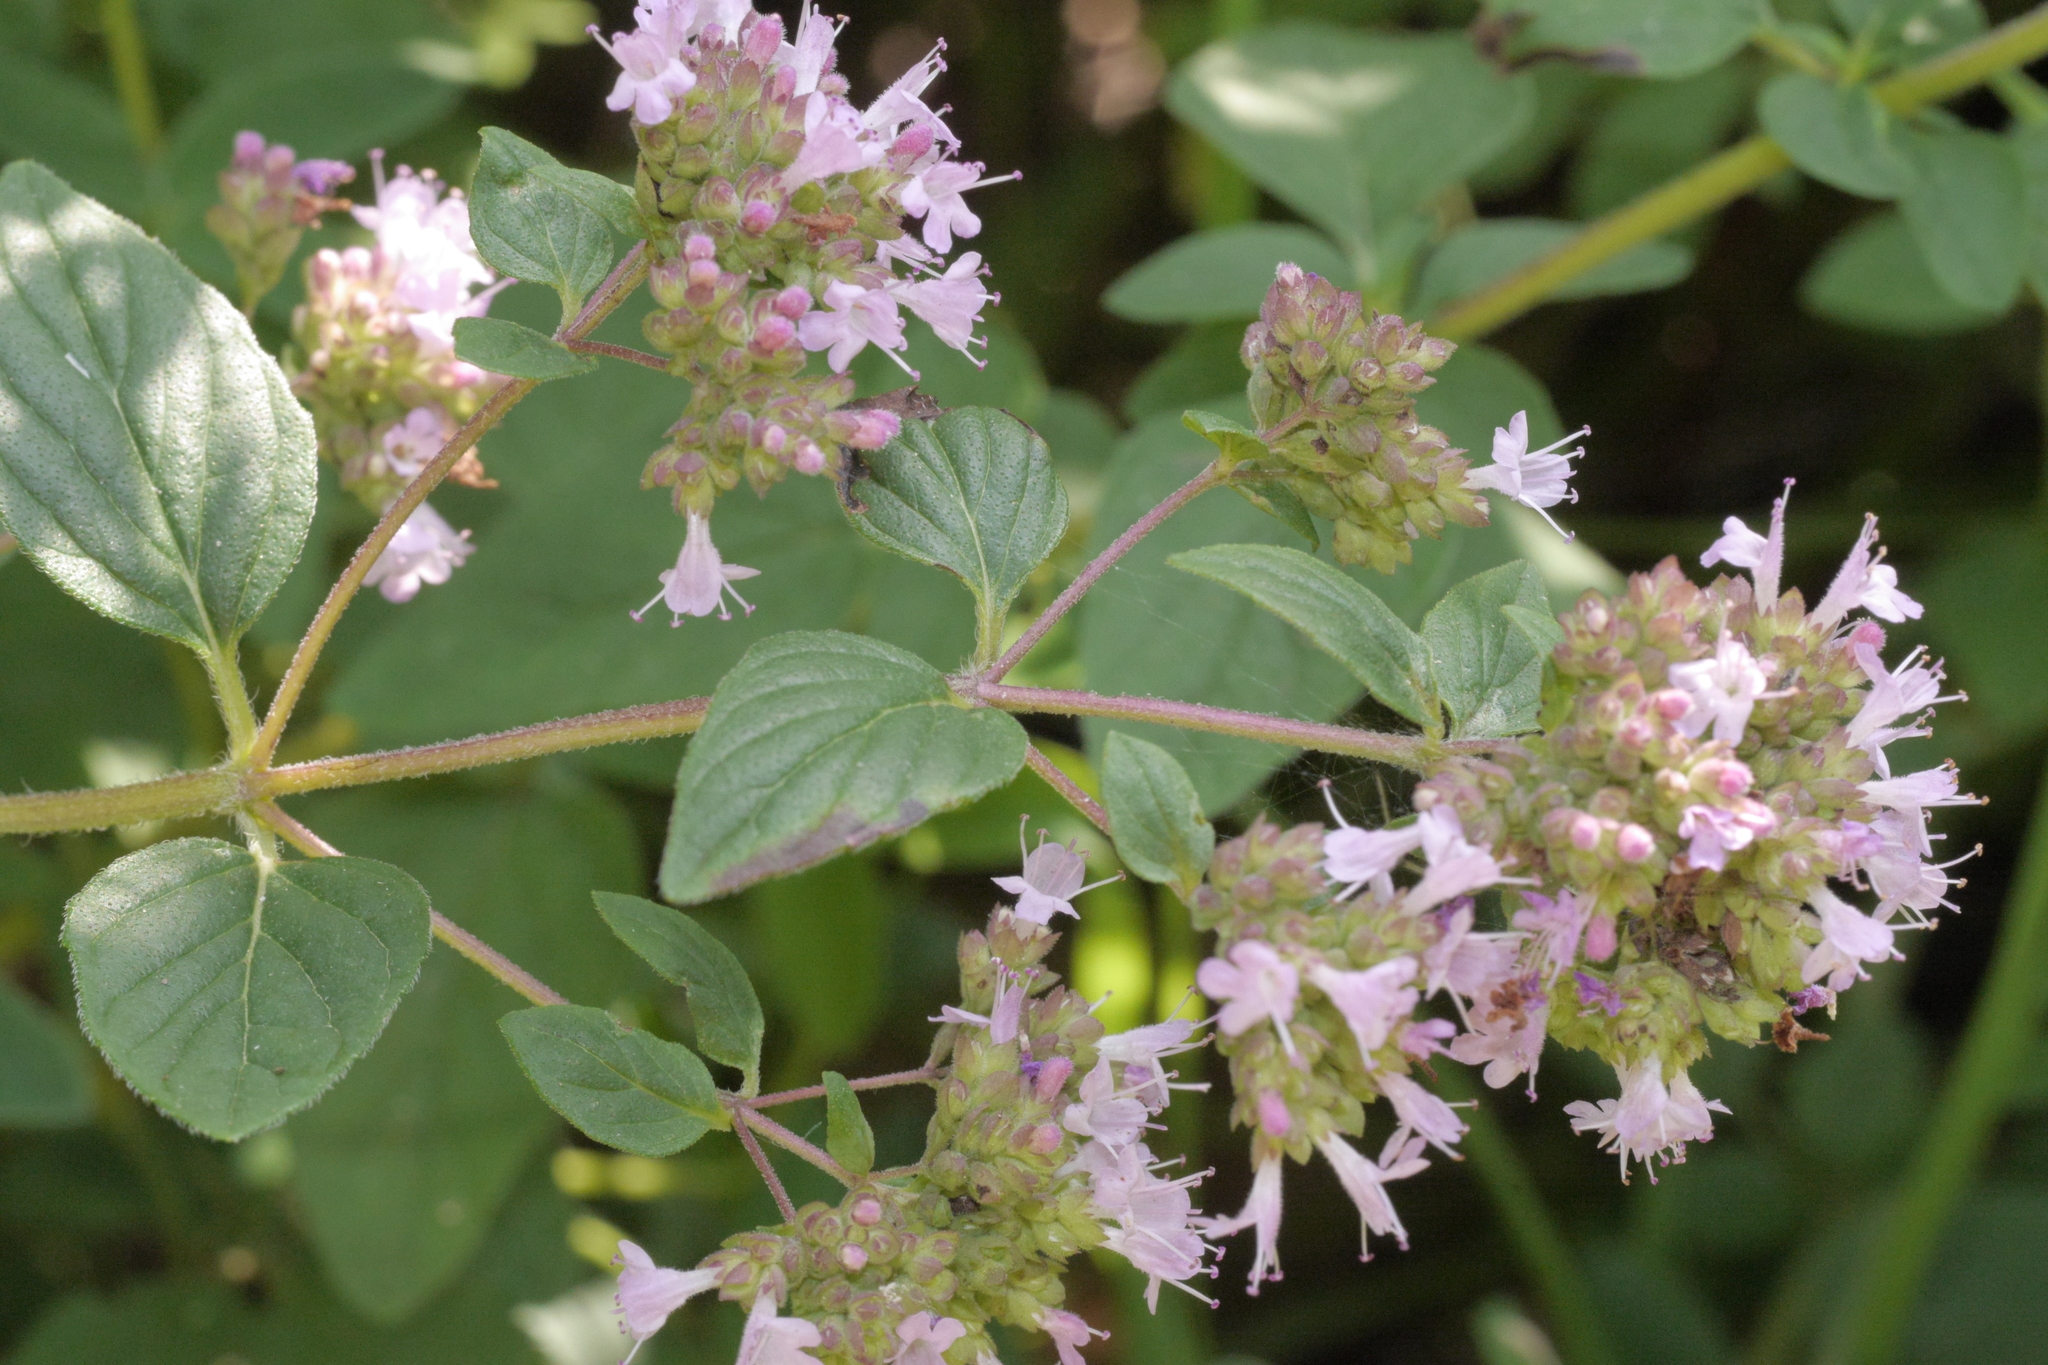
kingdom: Plantae
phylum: Tracheophyta
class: Magnoliopsida
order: Lamiales
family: Lamiaceae
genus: Origanum
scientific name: Origanum vulgare
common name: Wild marjoram
